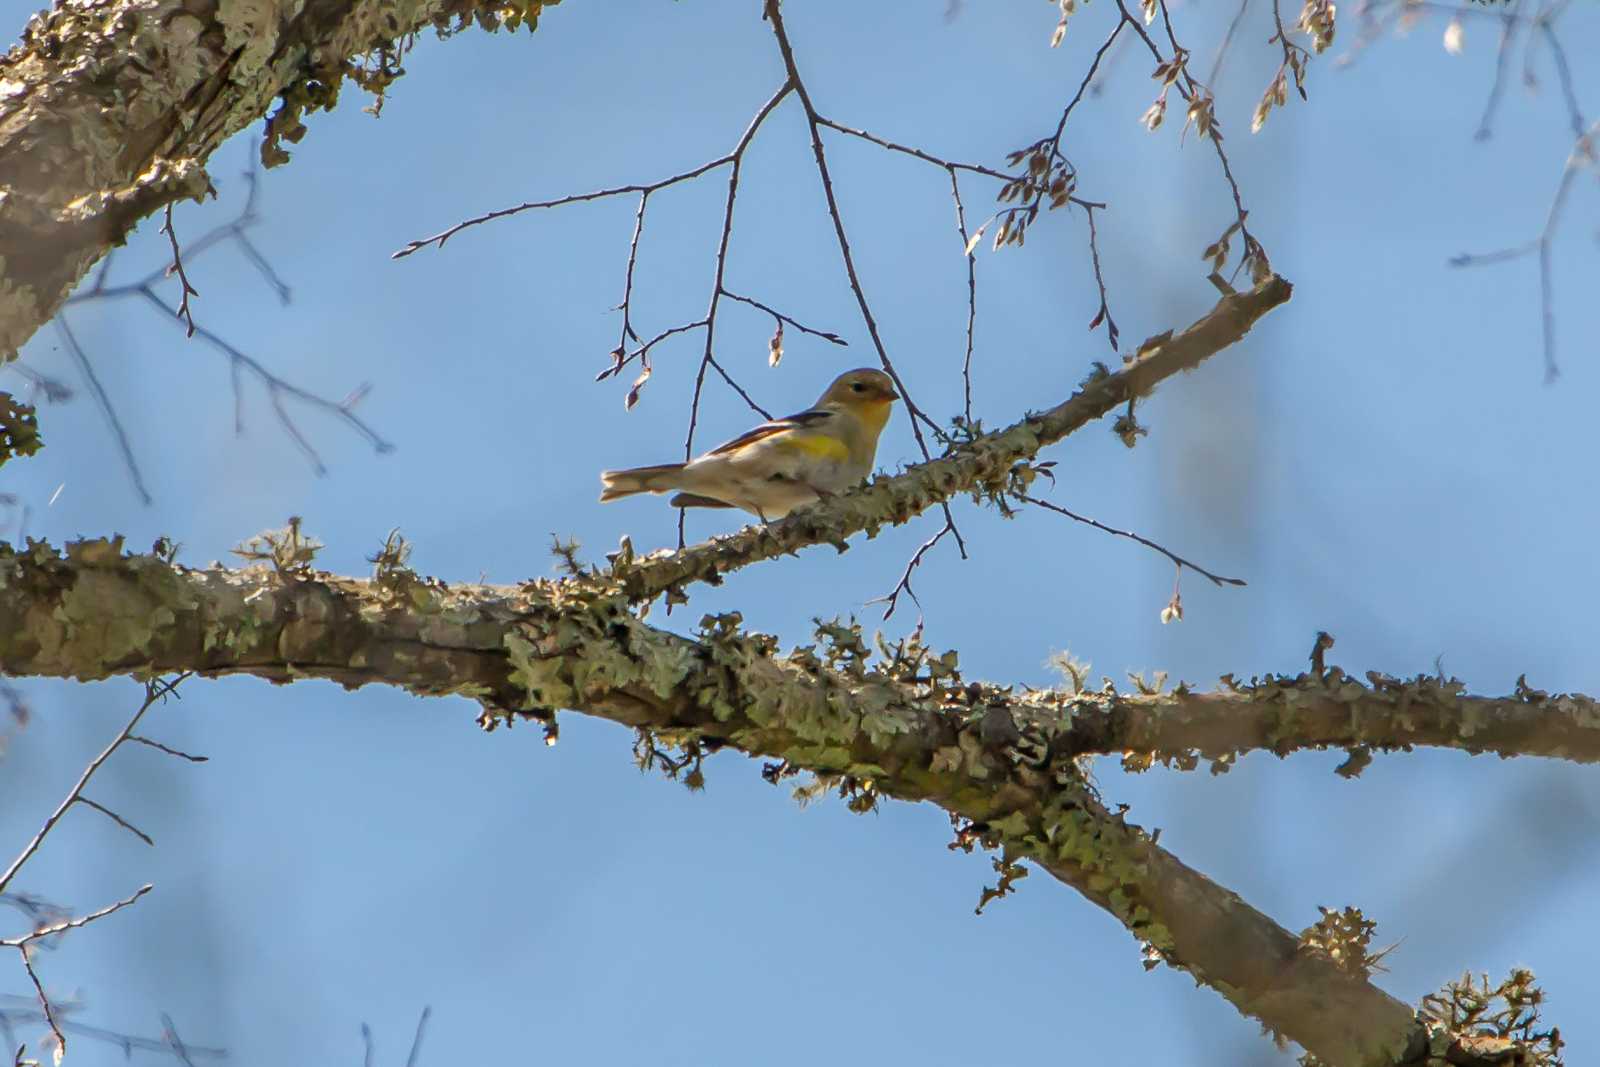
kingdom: Animalia
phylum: Chordata
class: Aves
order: Passeriformes
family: Fringillidae
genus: Spinus
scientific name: Spinus tristis
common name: American goldfinch
